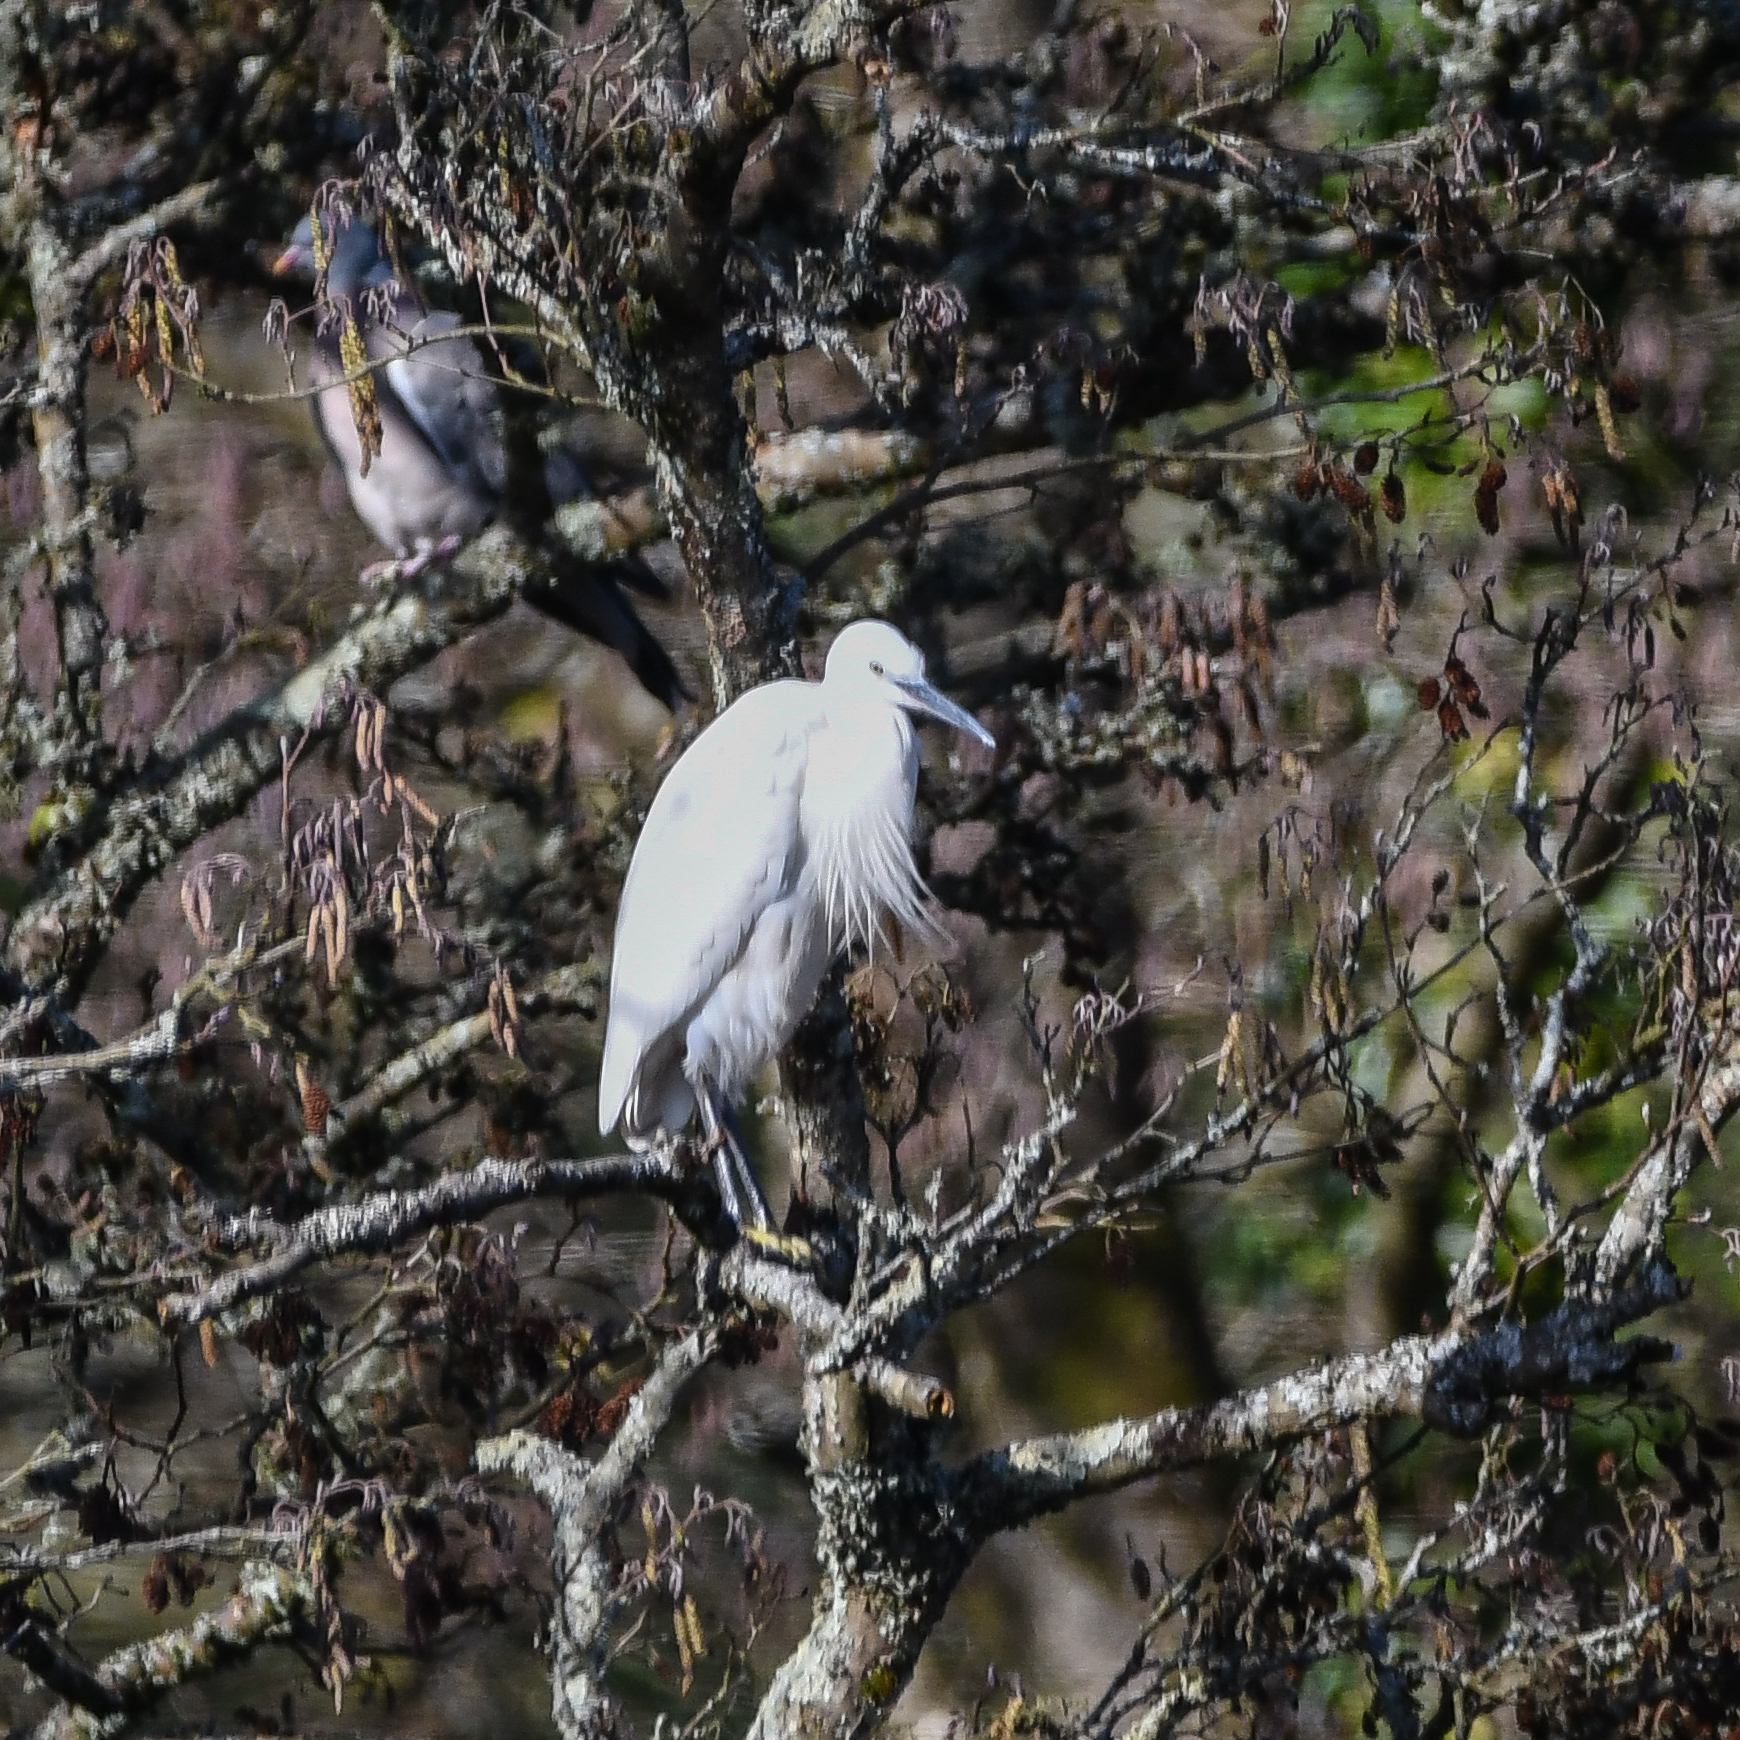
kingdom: Animalia
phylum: Chordata
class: Aves
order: Pelecaniformes
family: Ardeidae
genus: Egretta
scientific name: Egretta garzetta
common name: Little egret
